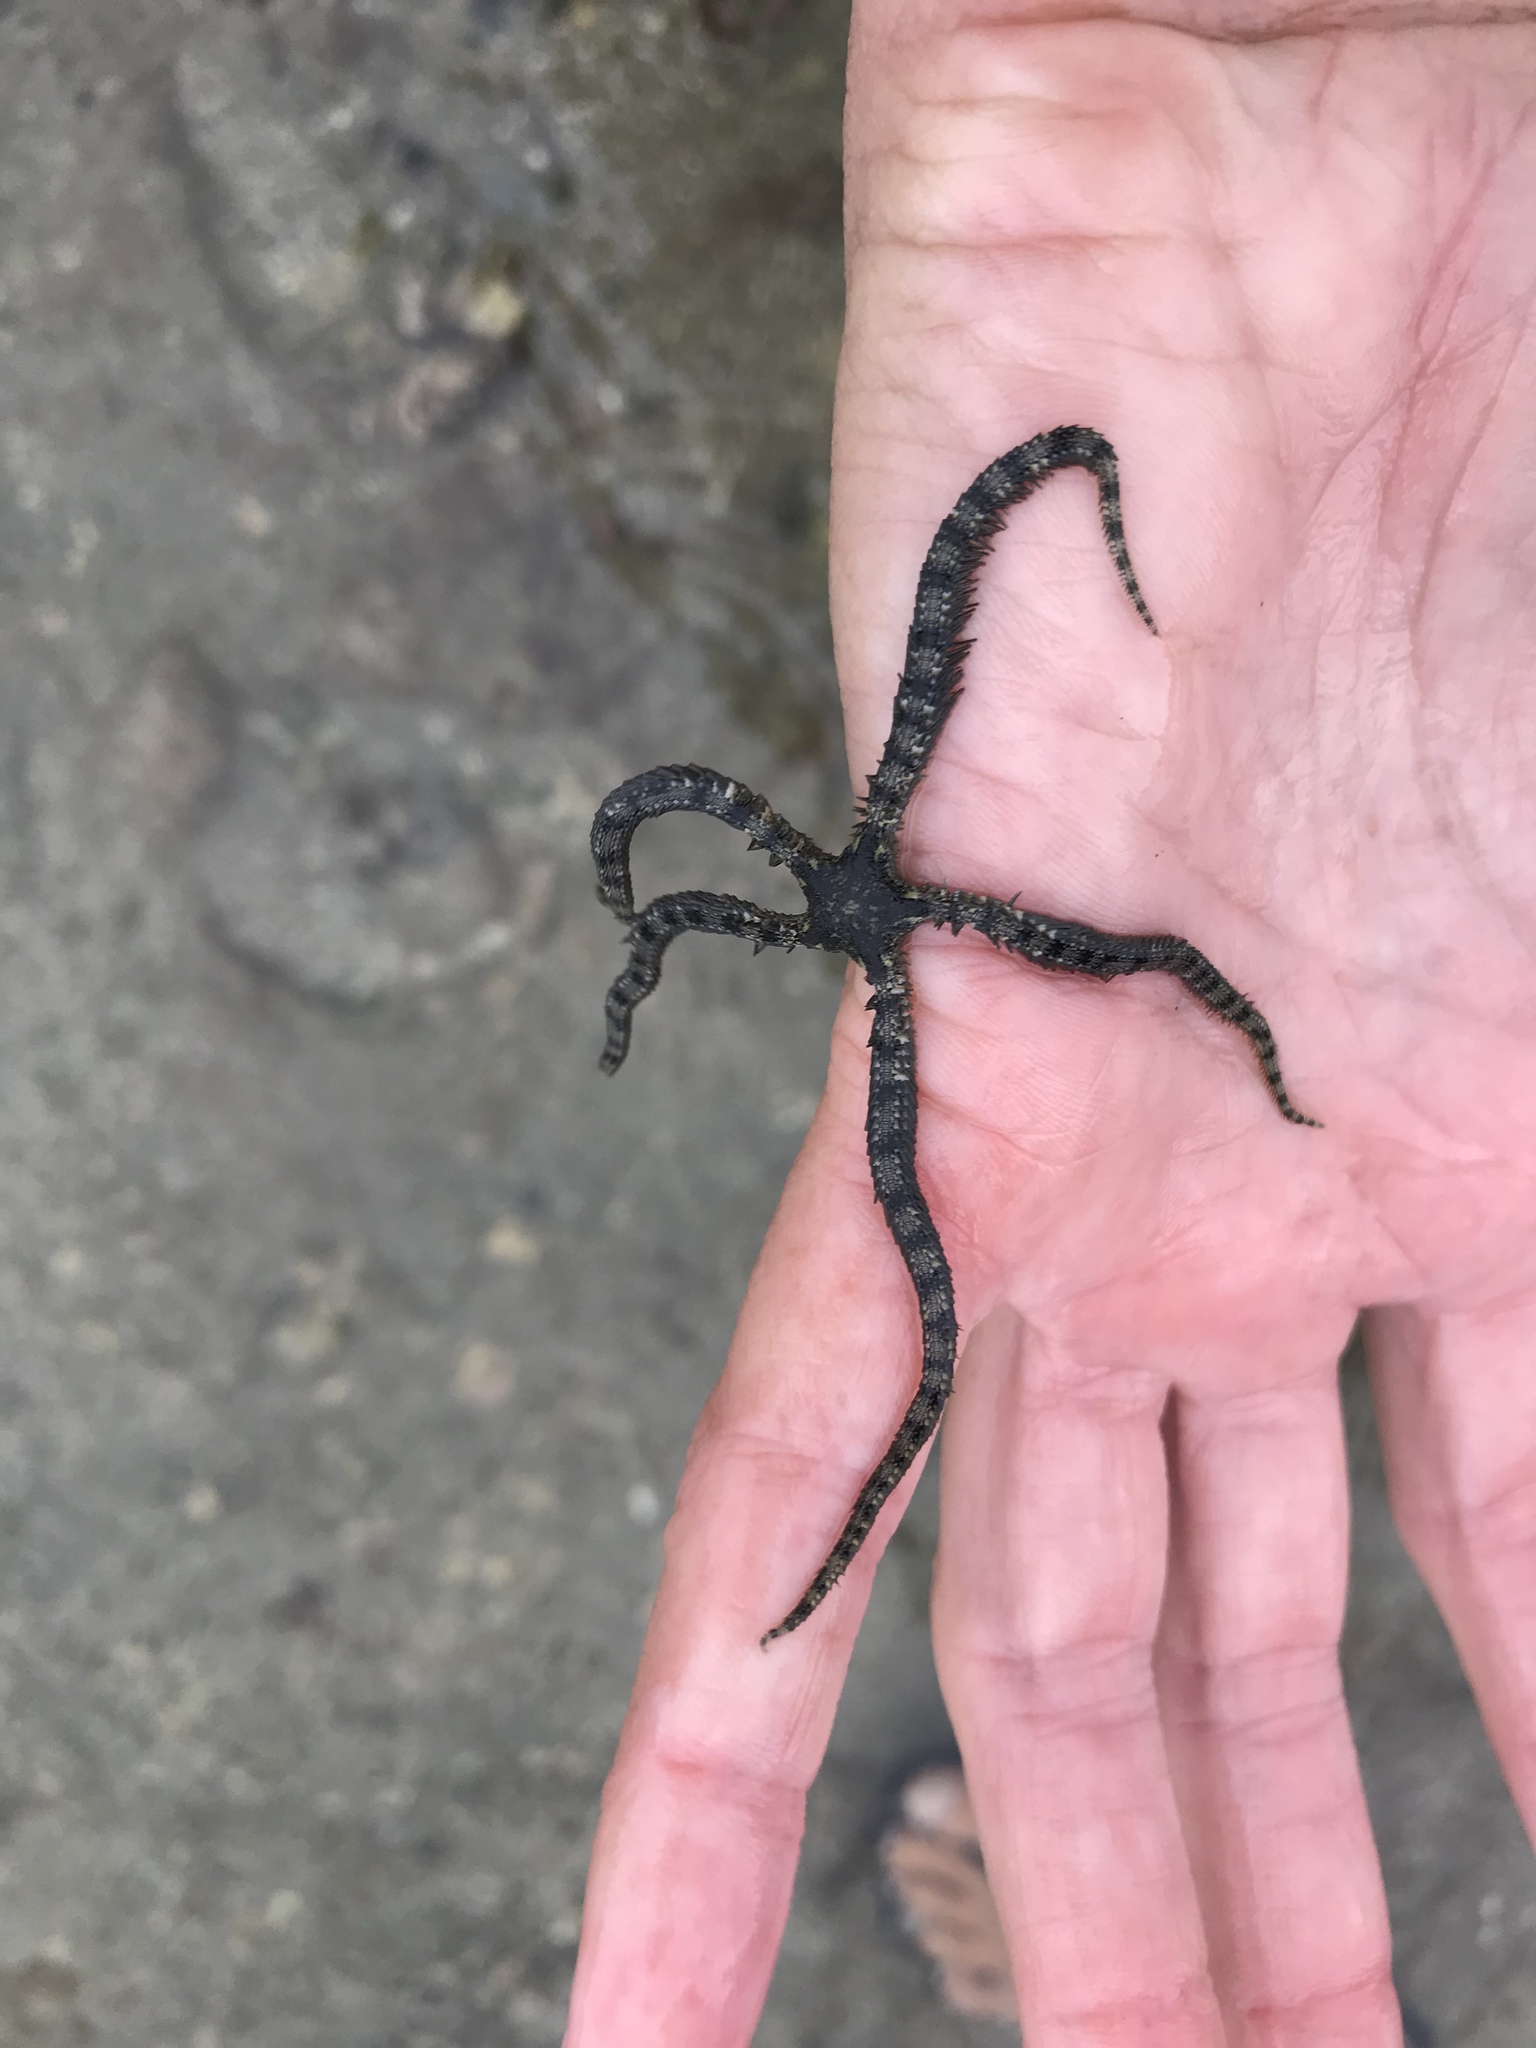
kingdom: Animalia
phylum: Echinodermata
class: Ophiuroidea
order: Ophiacanthida
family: Ophiocomidae
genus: Ophiocoma
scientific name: Ophiocoma aethiops
